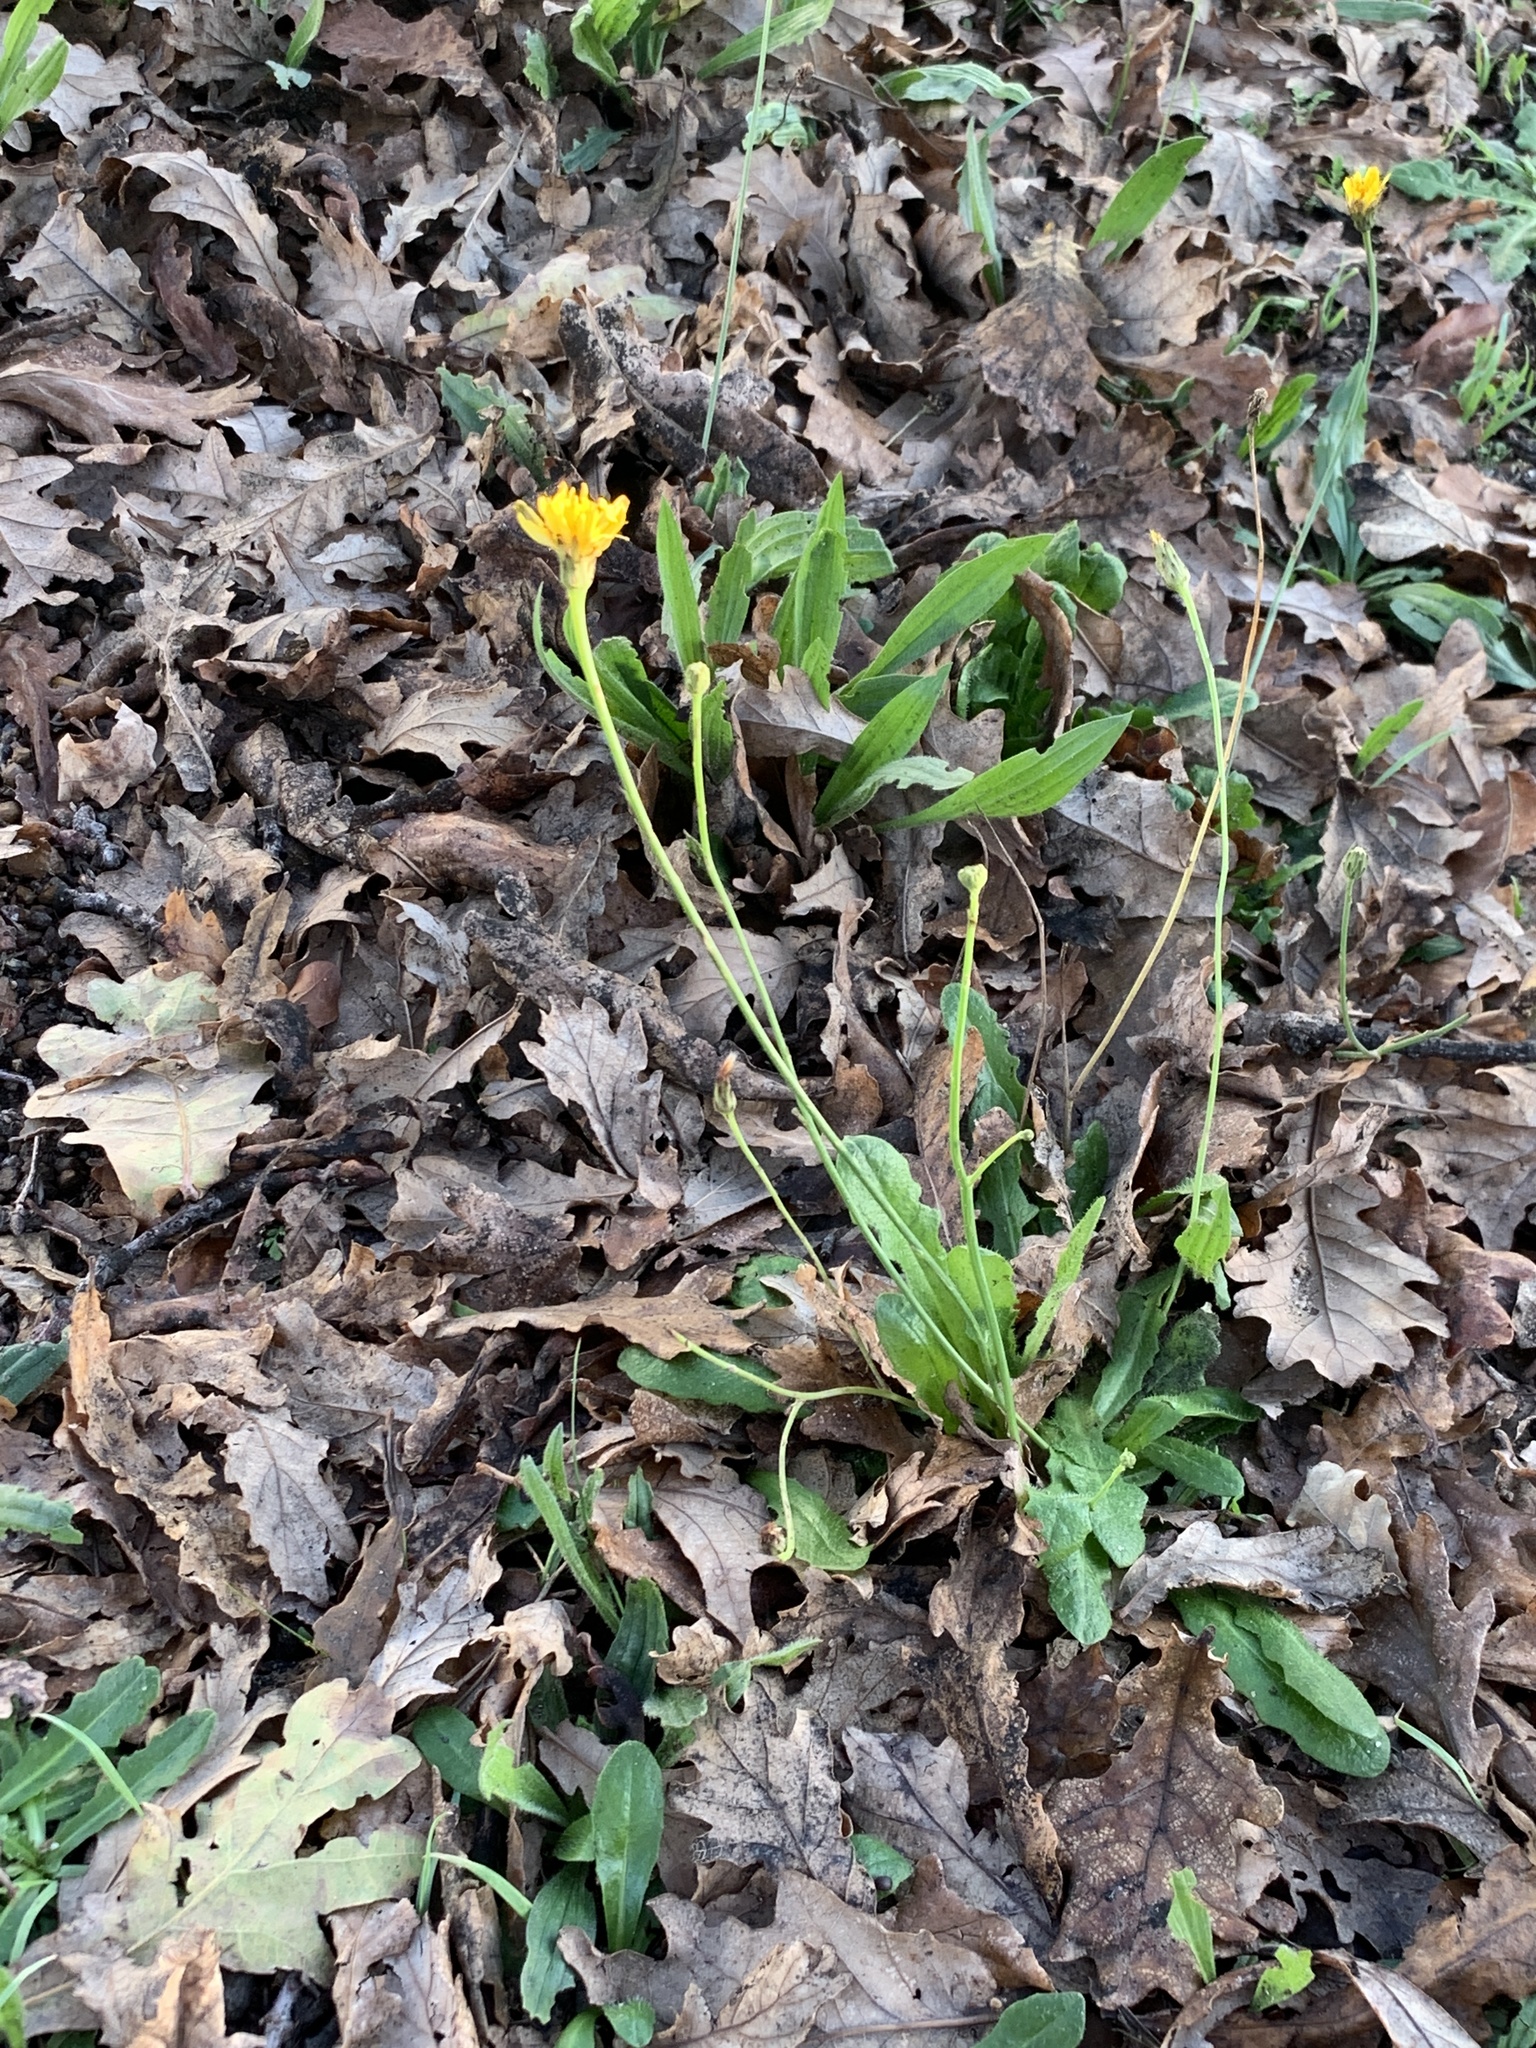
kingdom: Plantae
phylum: Tracheophyta
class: Magnoliopsida
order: Asterales
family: Asteraceae
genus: Hypochaeris
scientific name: Hypochaeris radicata
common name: Flatweed
